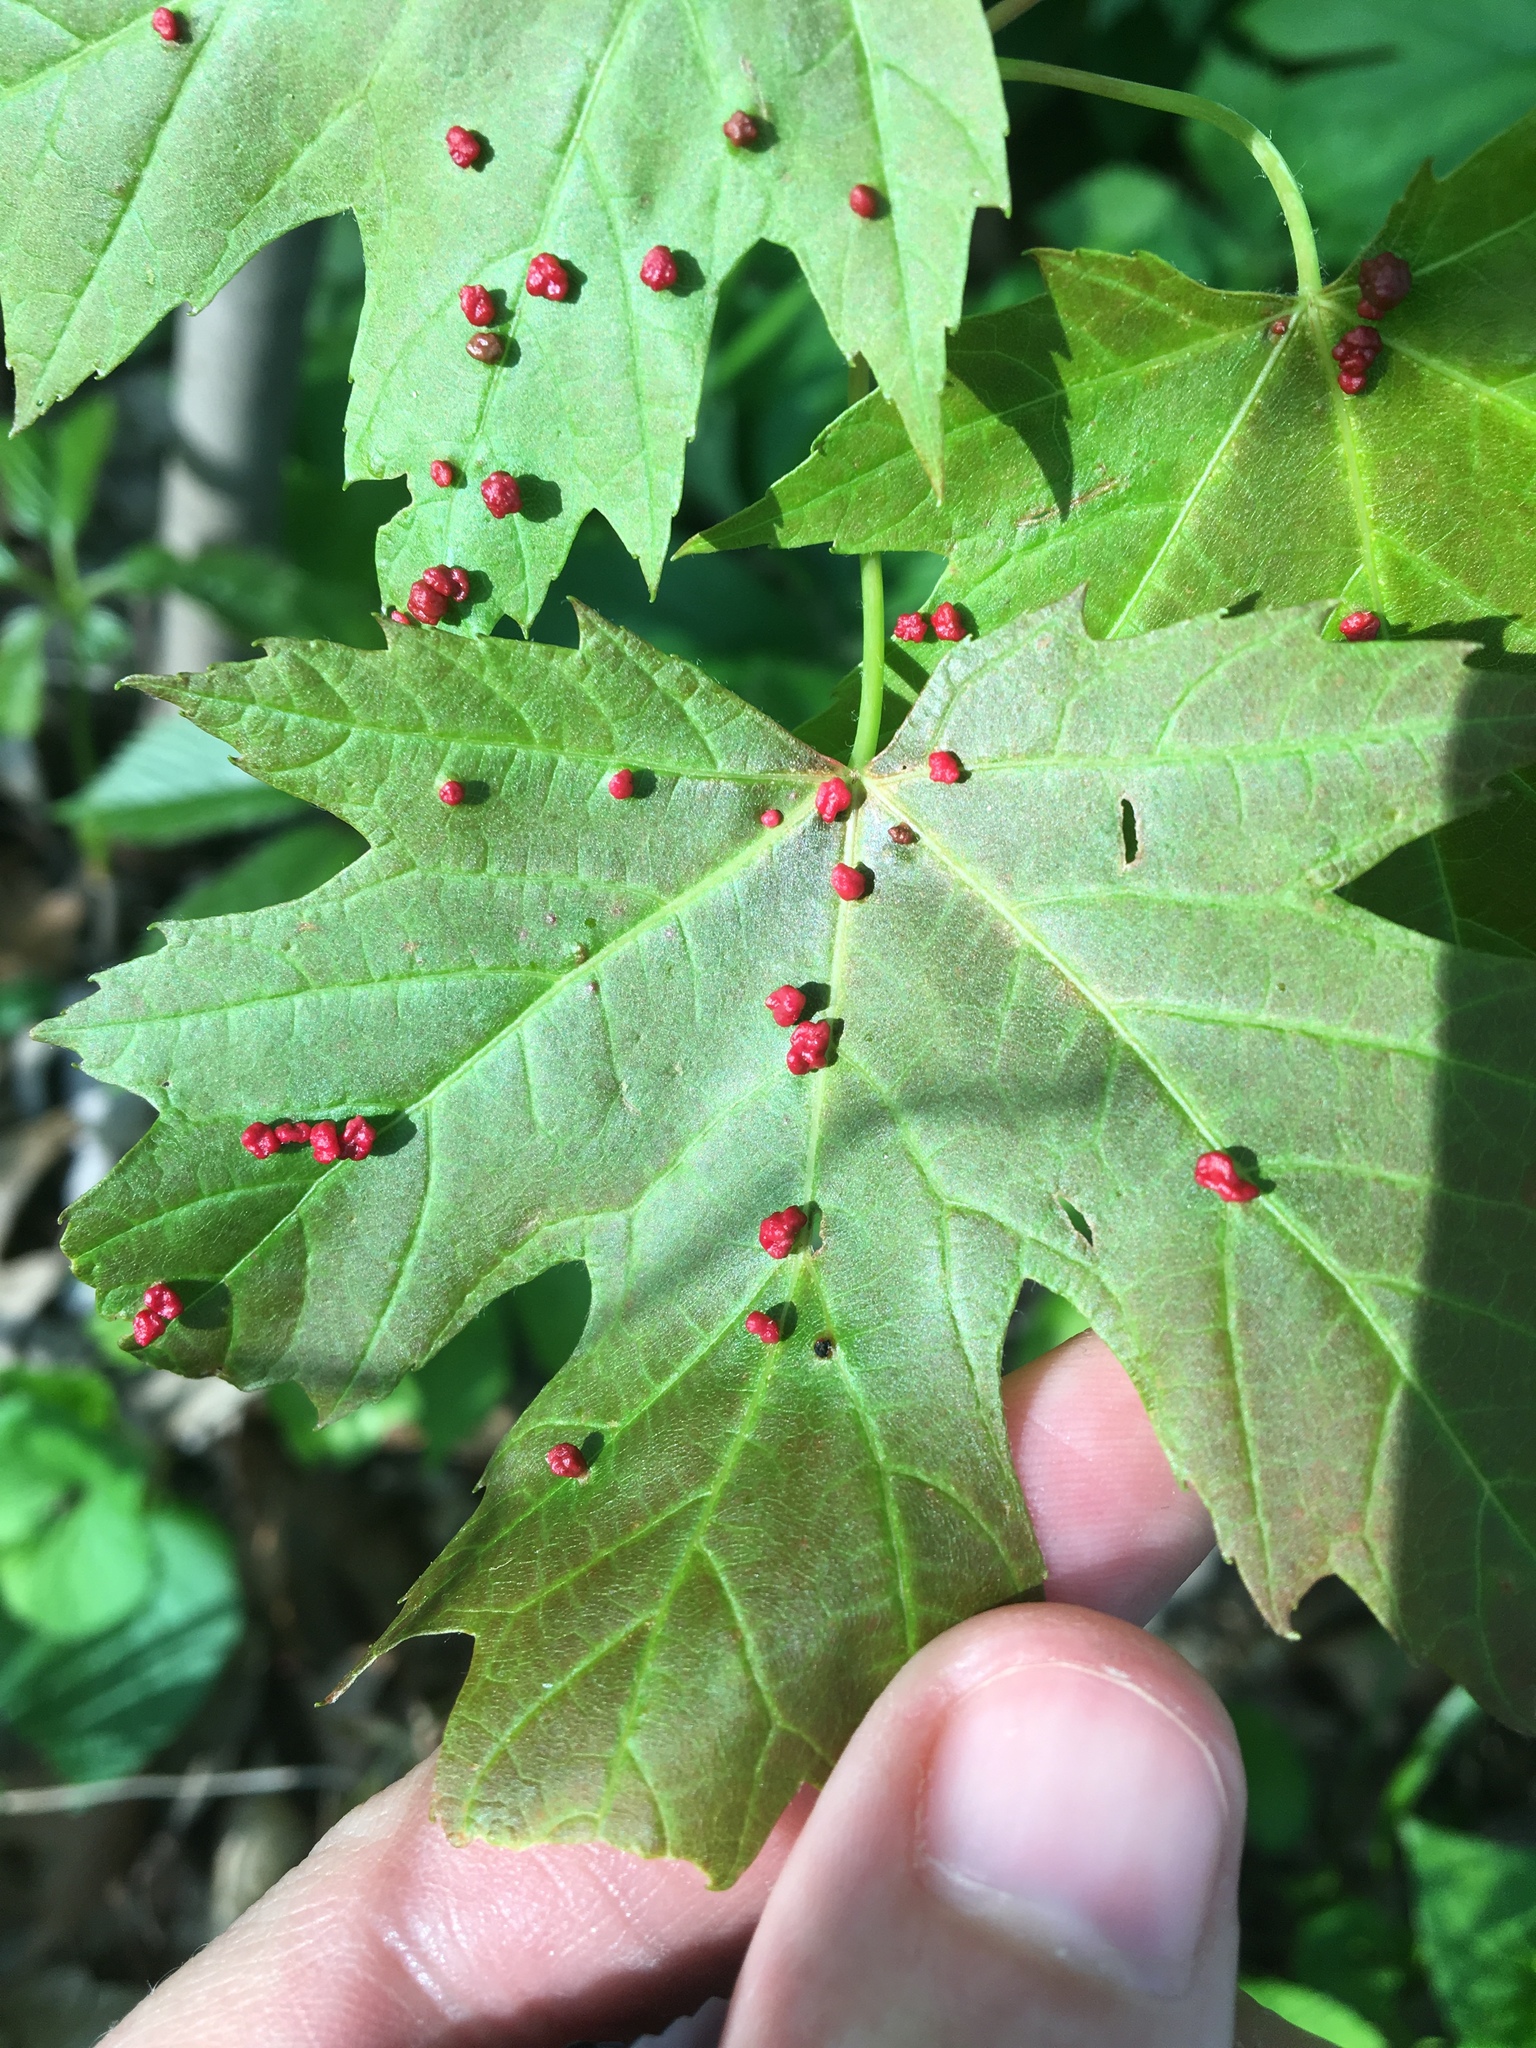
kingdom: Animalia
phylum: Arthropoda
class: Arachnida
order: Trombidiformes
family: Eriophyidae
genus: Vasates
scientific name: Vasates quadripedes
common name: Maple bladder gall mite
